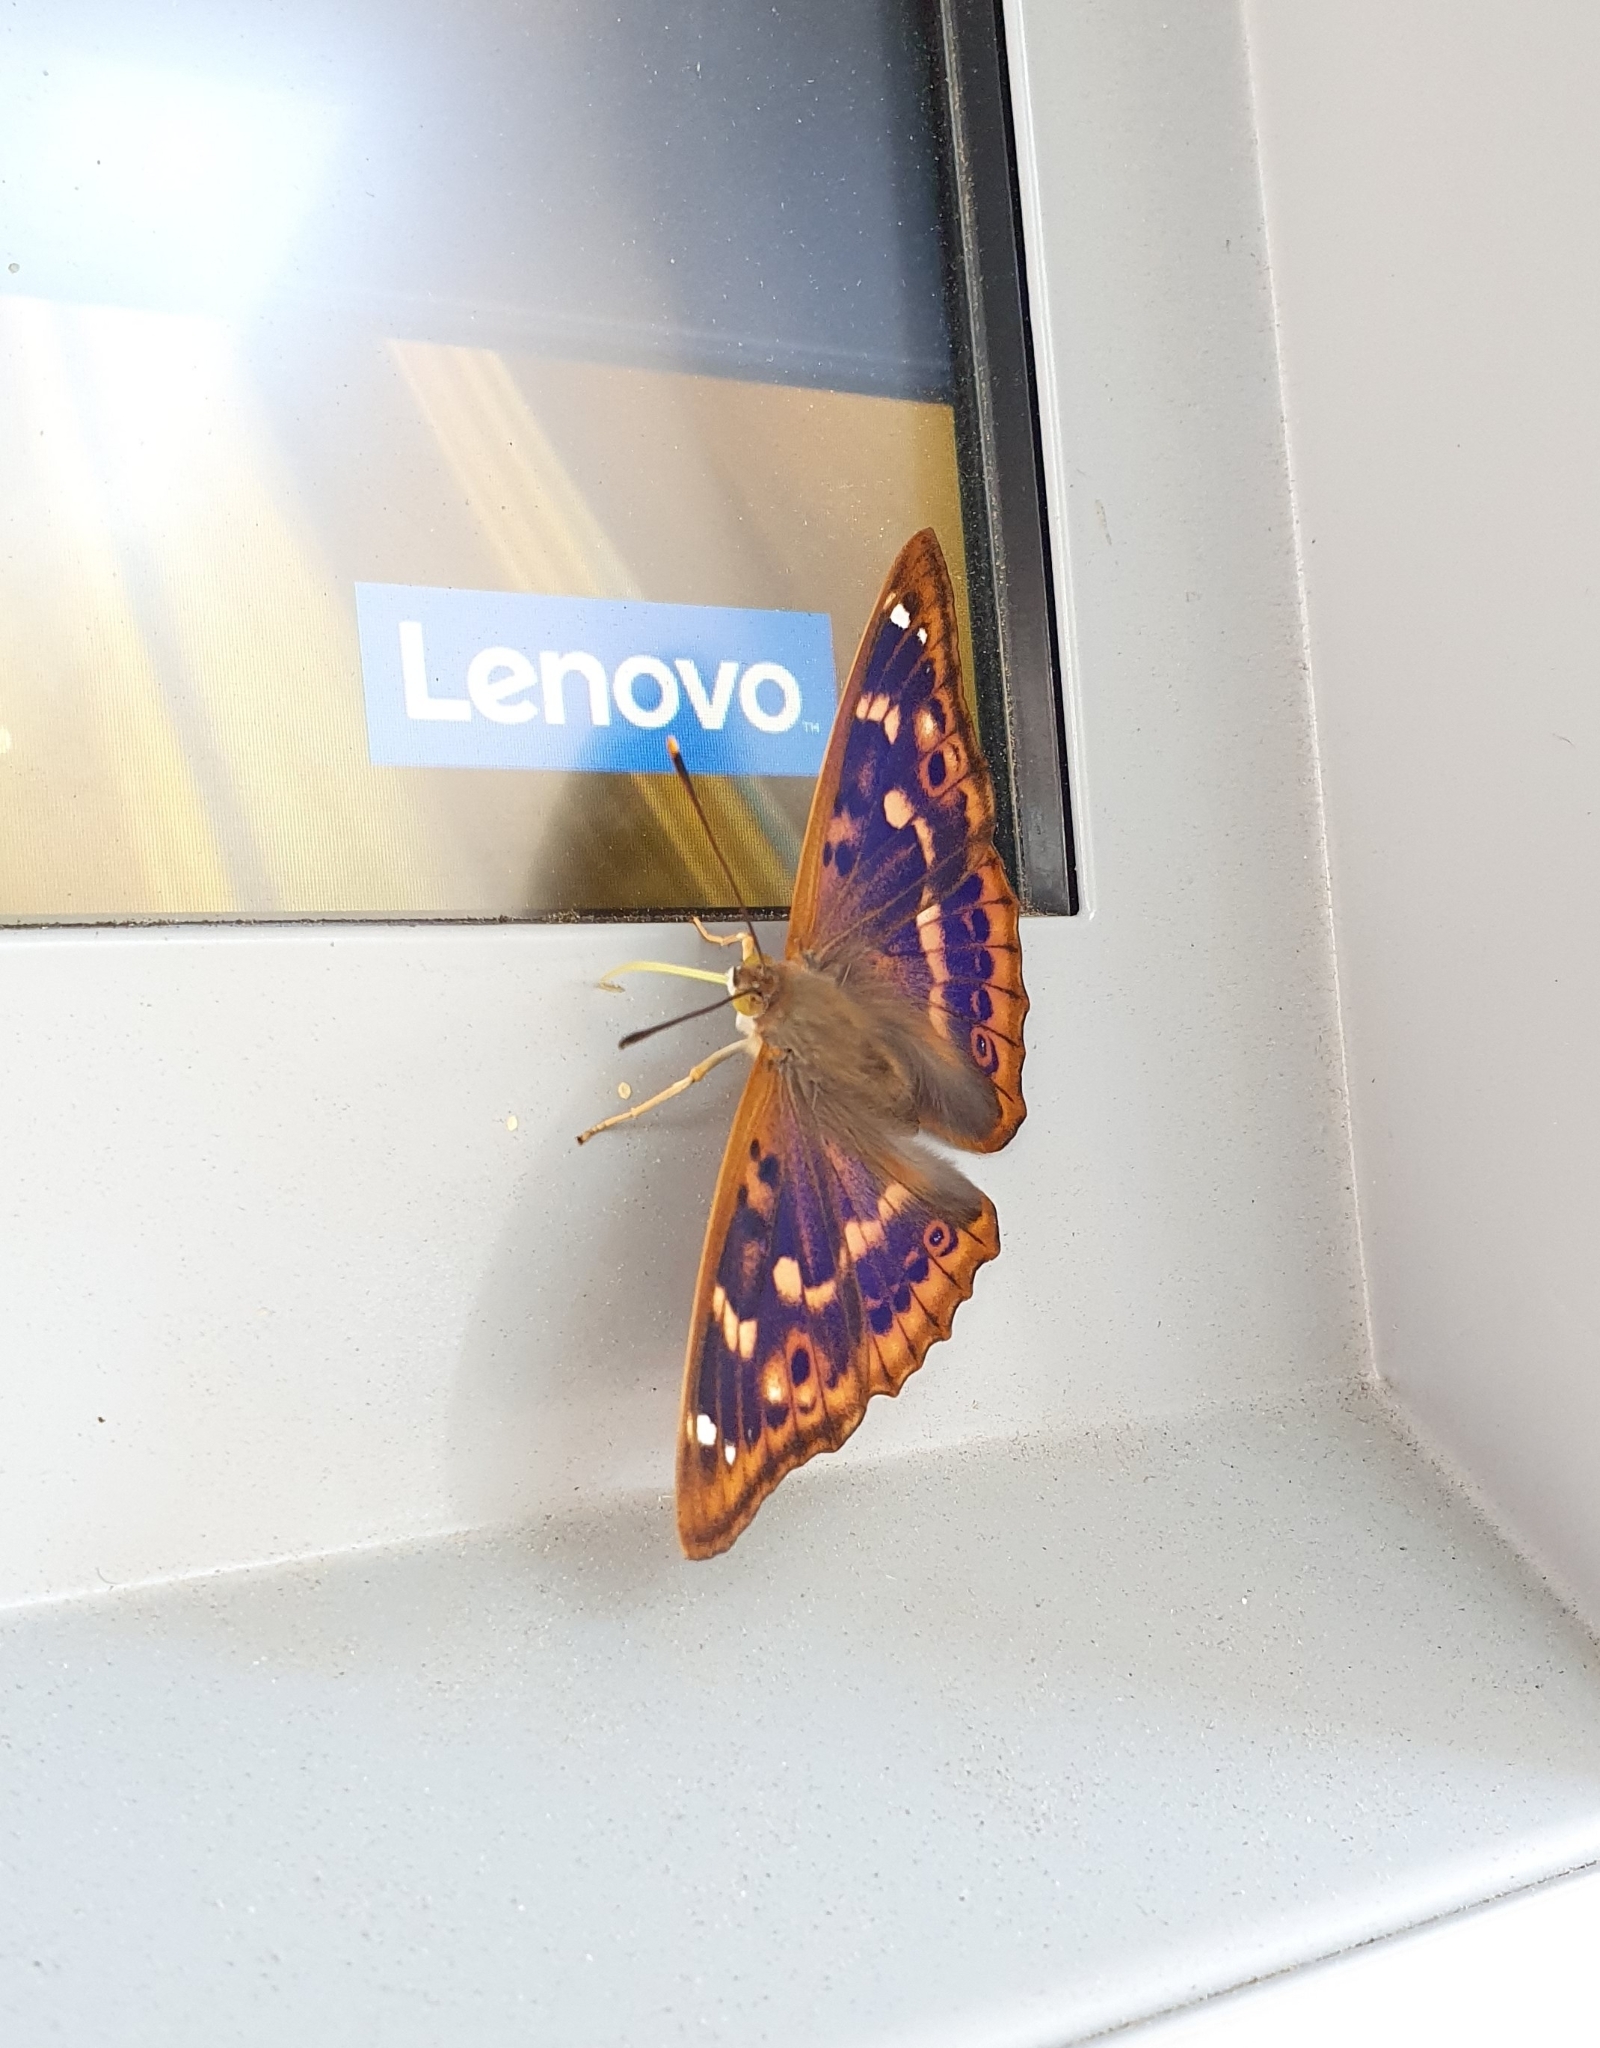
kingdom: Animalia
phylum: Arthropoda
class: Insecta
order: Lepidoptera
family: Nymphalidae
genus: Apatura
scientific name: Apatura ilia
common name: Lesser purple emperor
